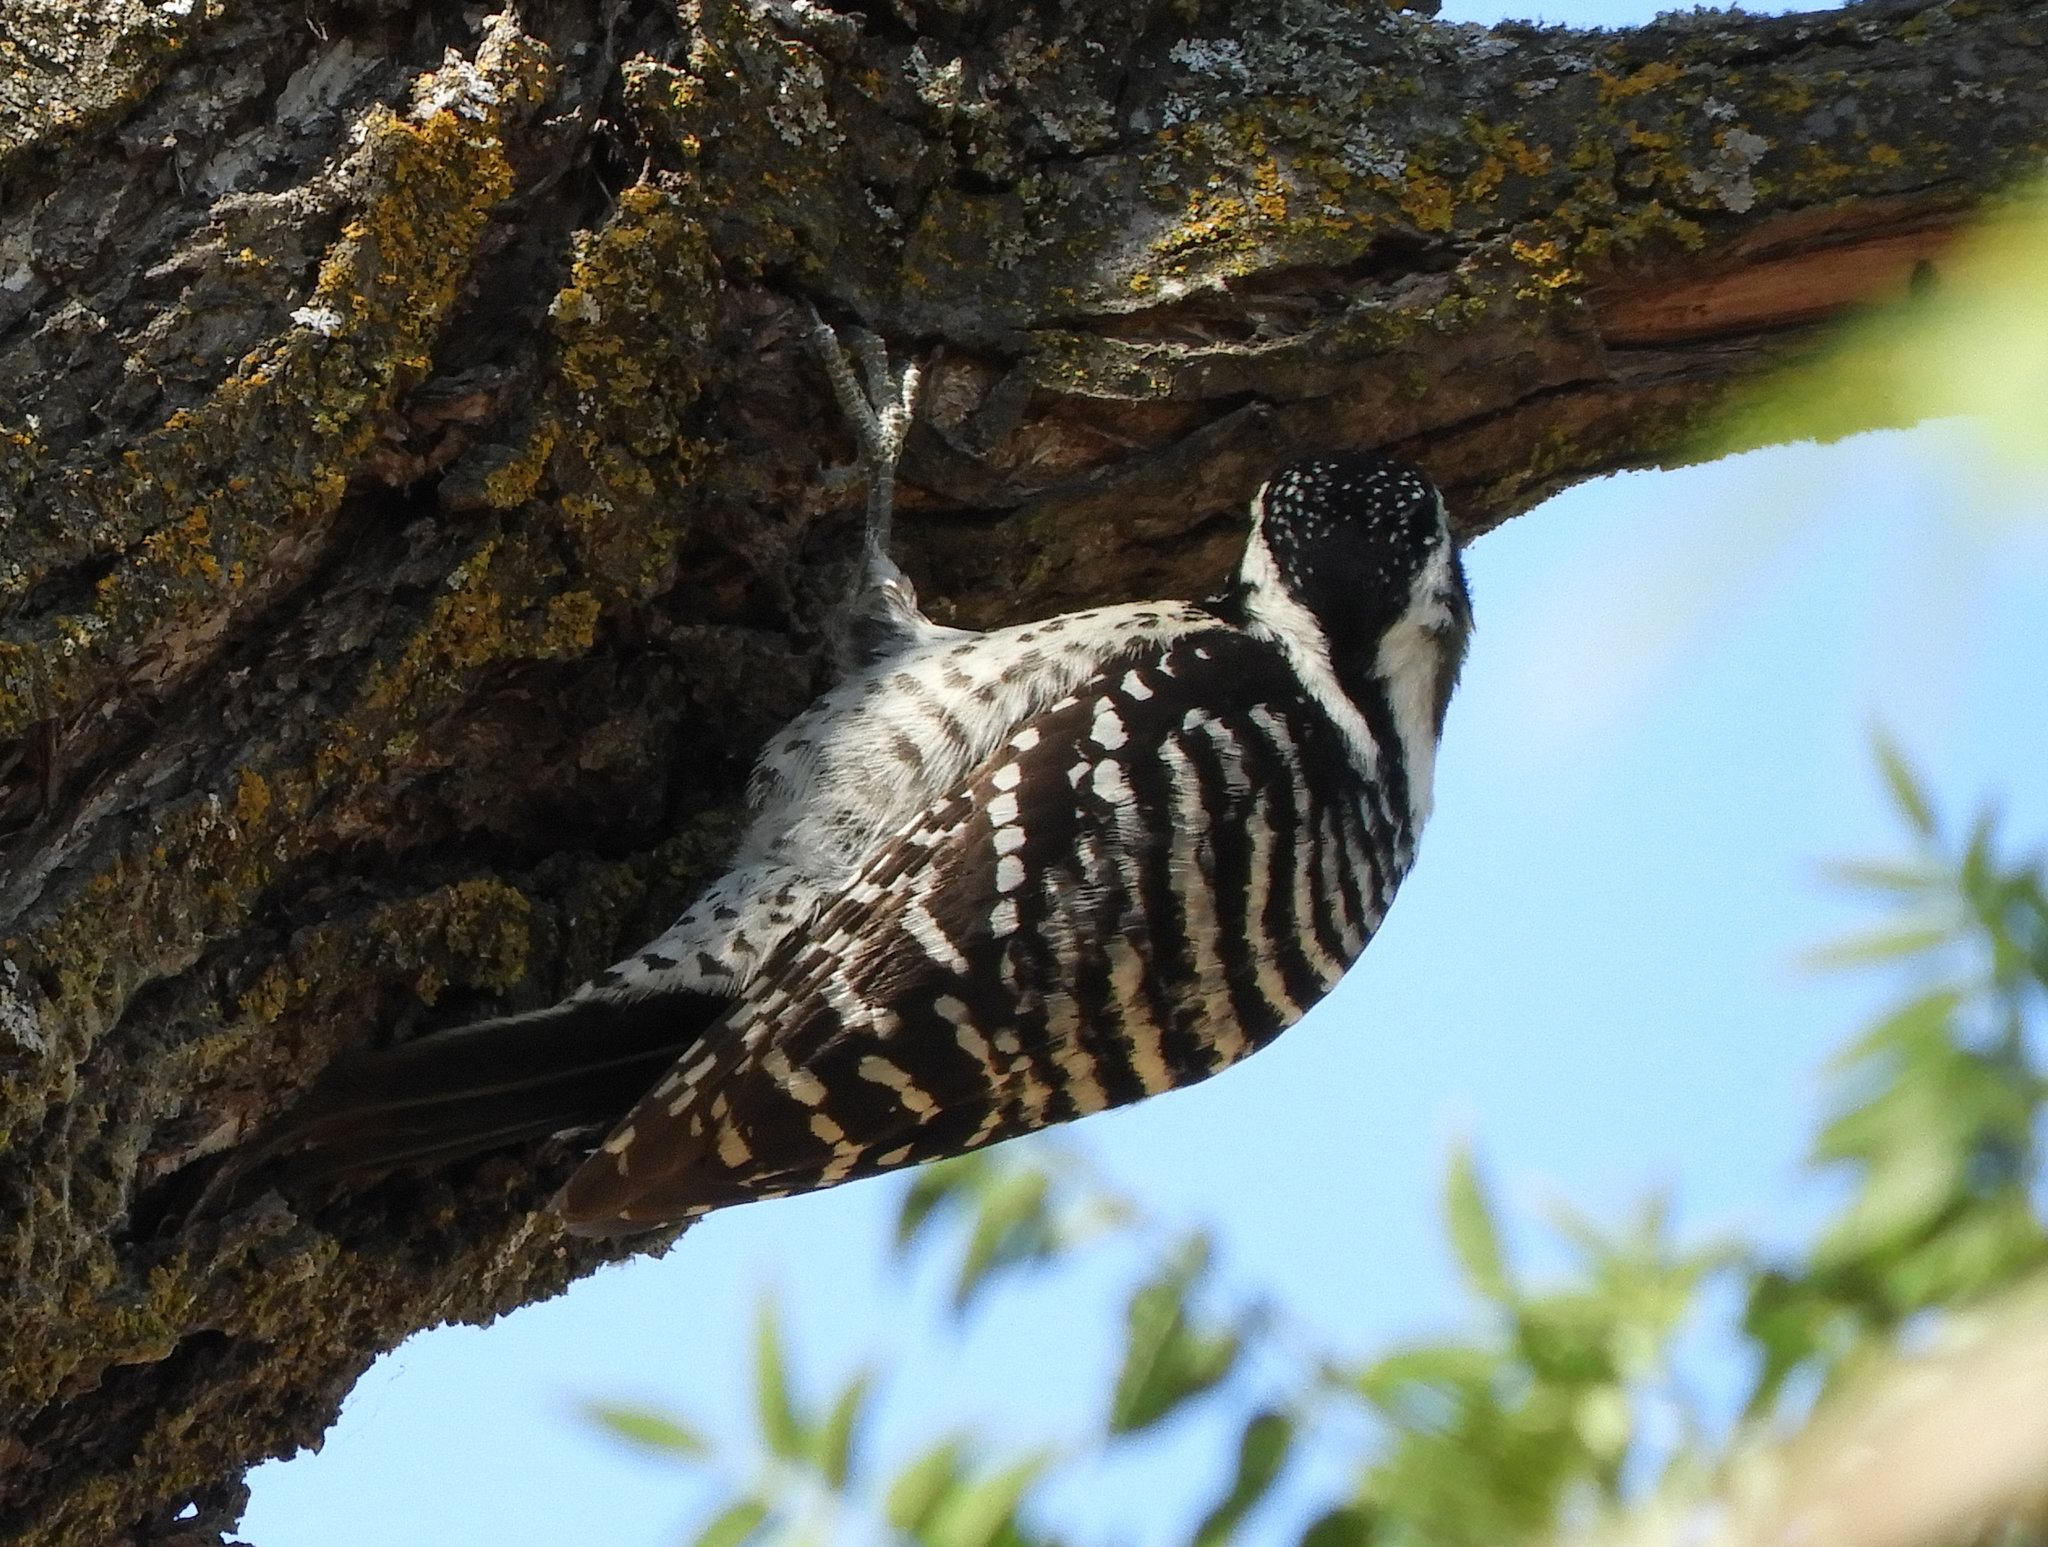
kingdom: Animalia
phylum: Chordata
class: Aves
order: Piciformes
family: Picidae
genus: Dryobates
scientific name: Dryobates nuttallii
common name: Nuttall's woodpecker
